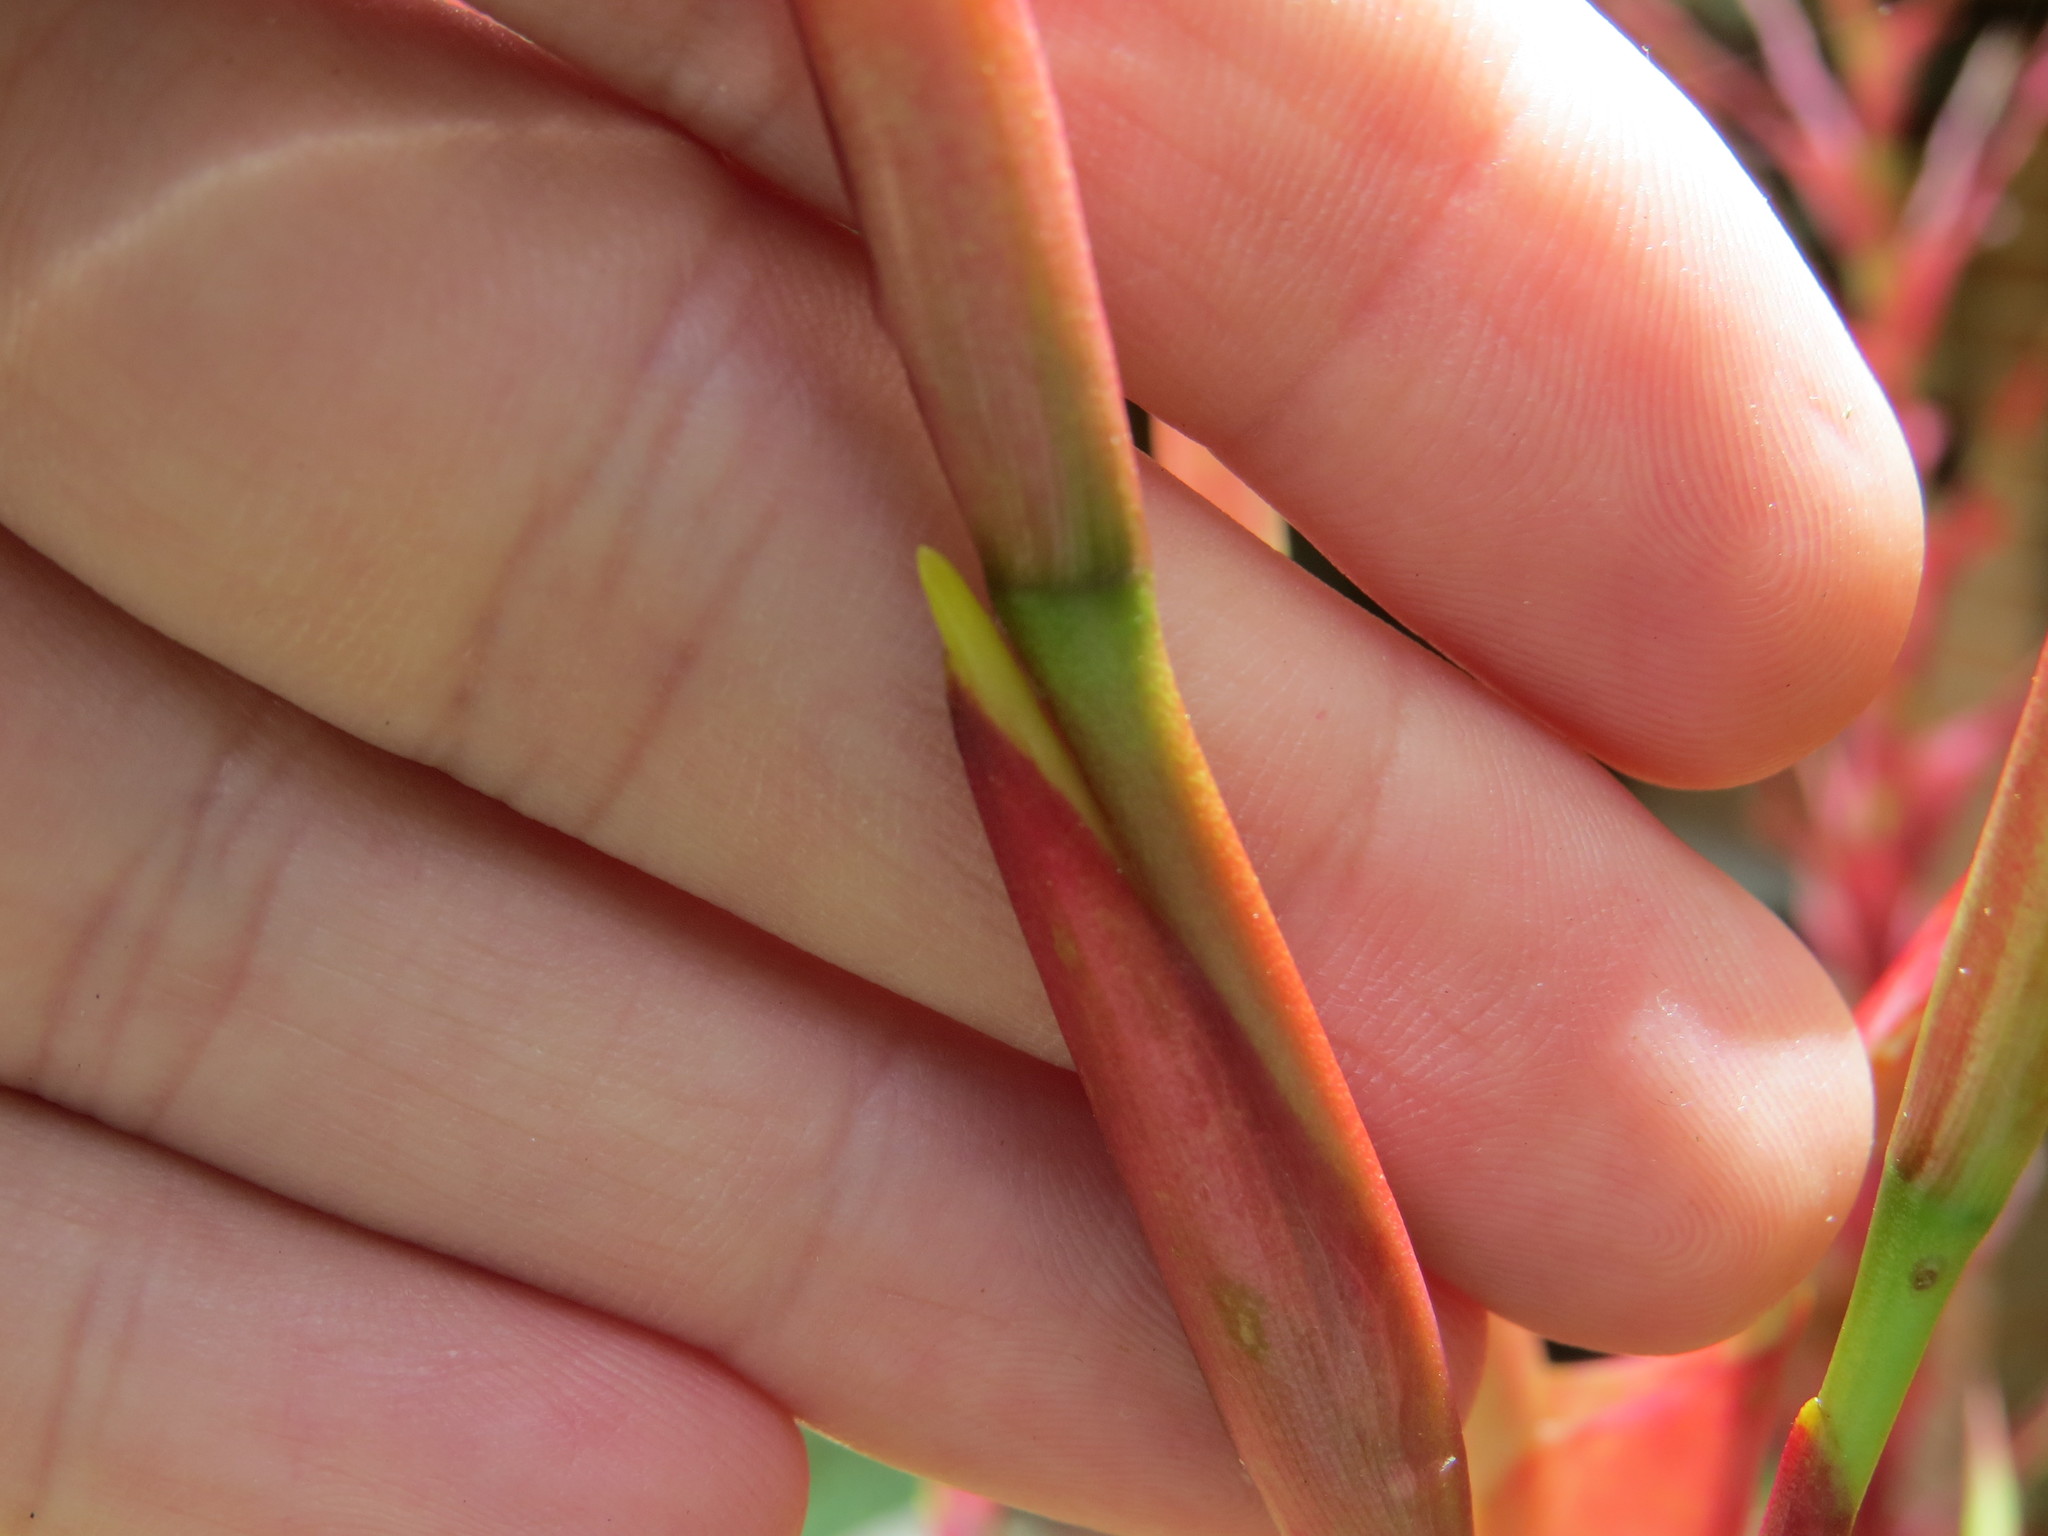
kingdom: Plantae
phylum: Tracheophyta
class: Liliopsida
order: Poales
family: Bromeliaceae
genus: Vriesea
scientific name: Vriesea philippocoburgi
